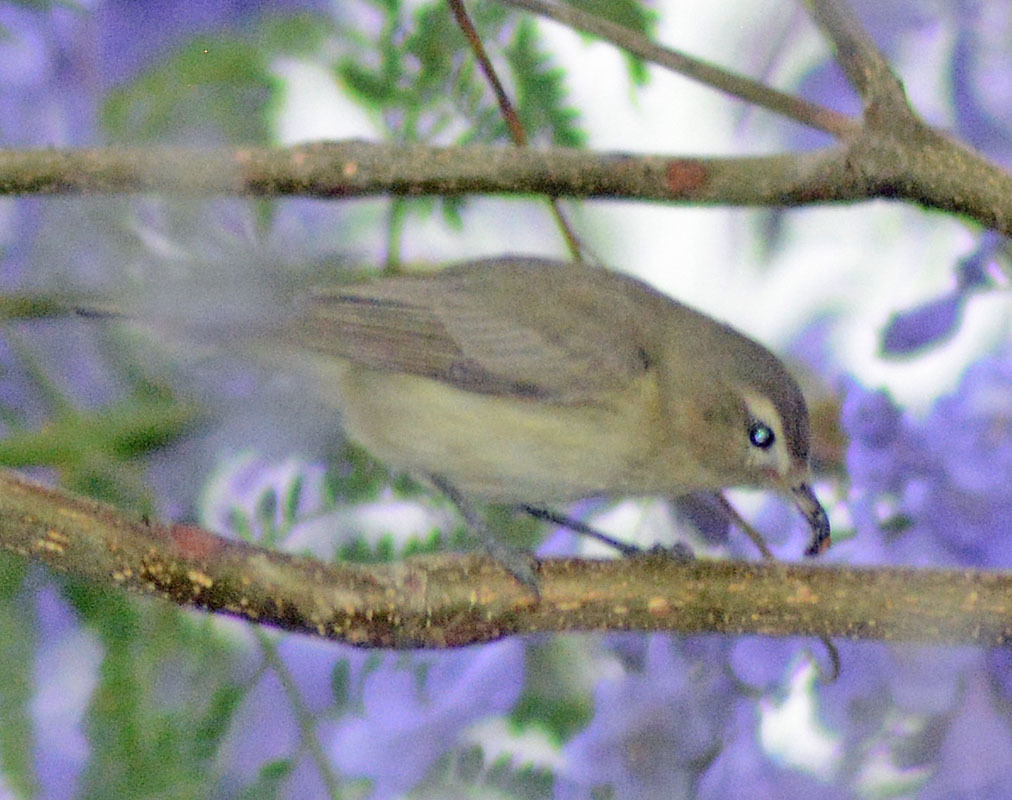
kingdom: Animalia
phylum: Chordata
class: Aves
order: Passeriformes
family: Vireonidae
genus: Vireo
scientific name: Vireo gilvus
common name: Warbling vireo
